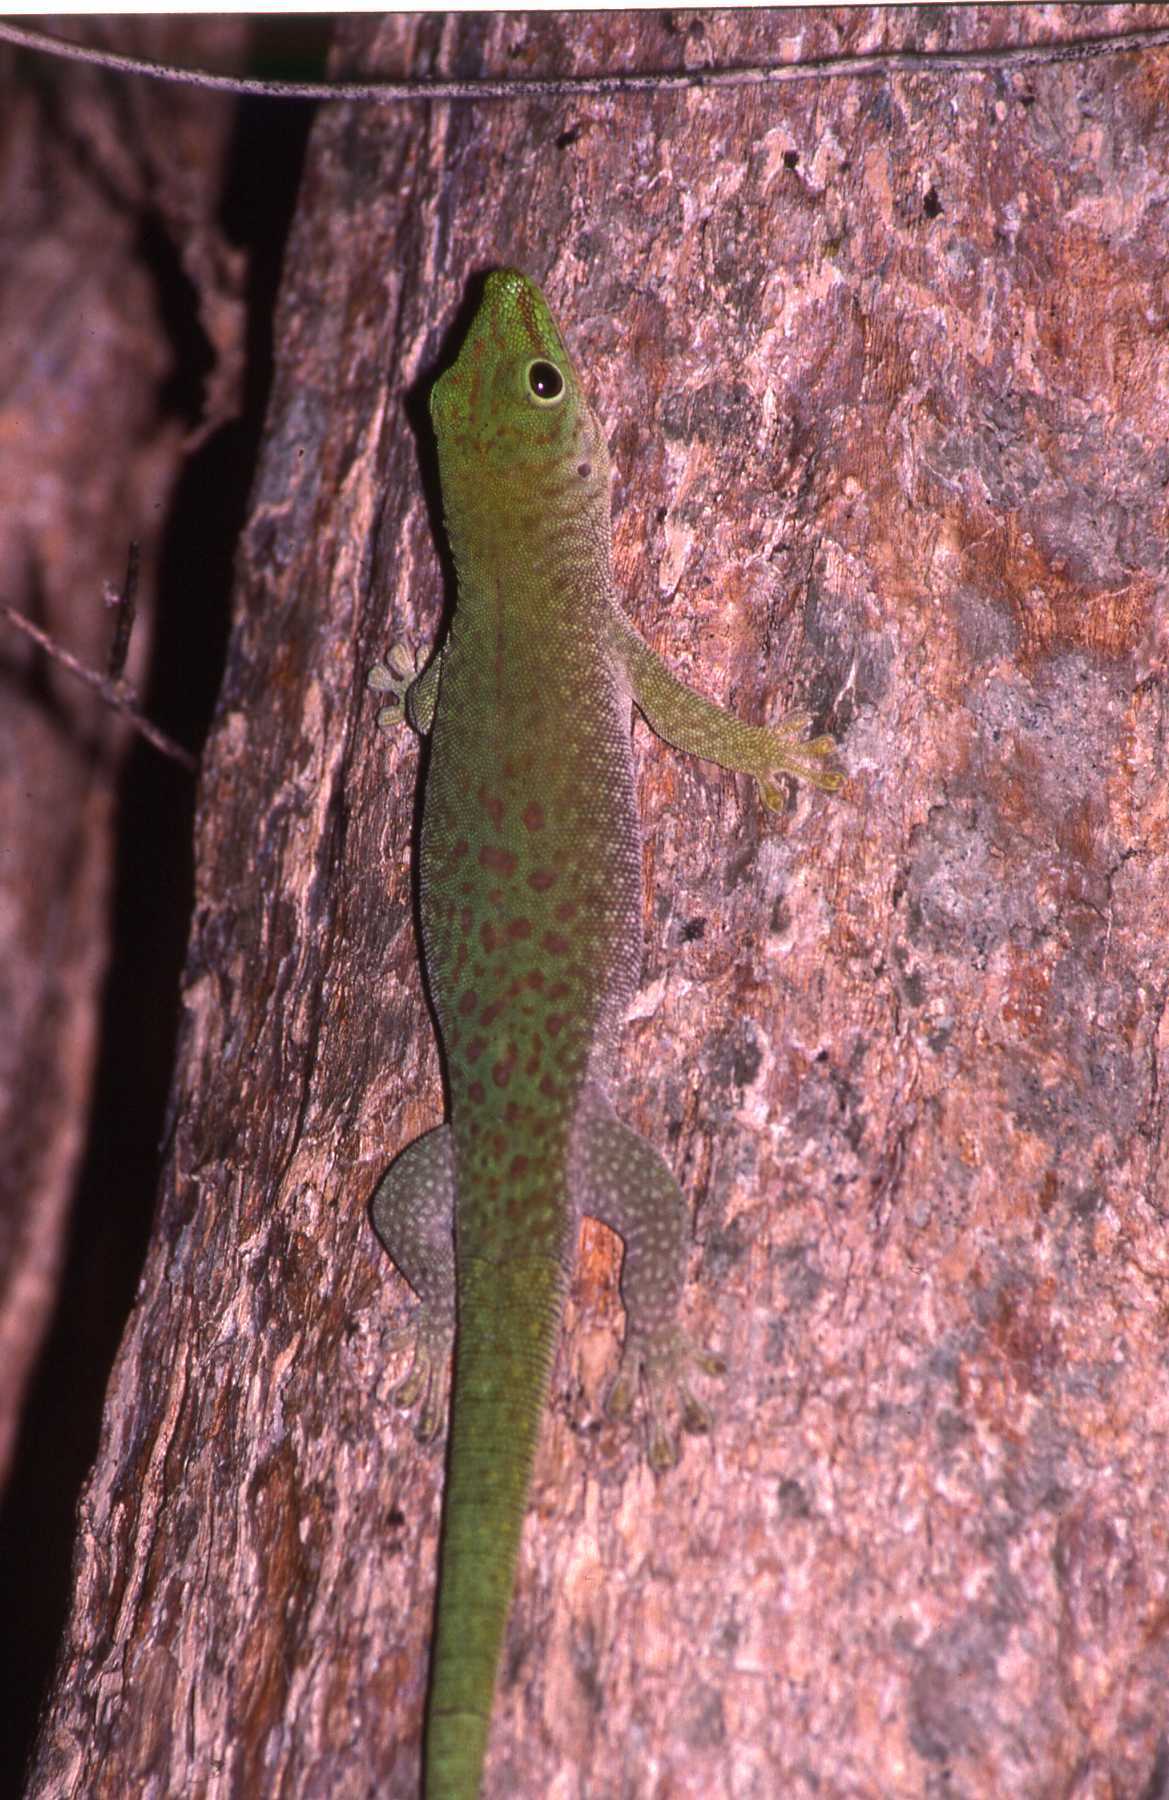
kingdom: Animalia
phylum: Chordata
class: Squamata
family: Gekkonidae
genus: Phelsuma
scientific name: Phelsuma kochi
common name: Madagascar day gecko
